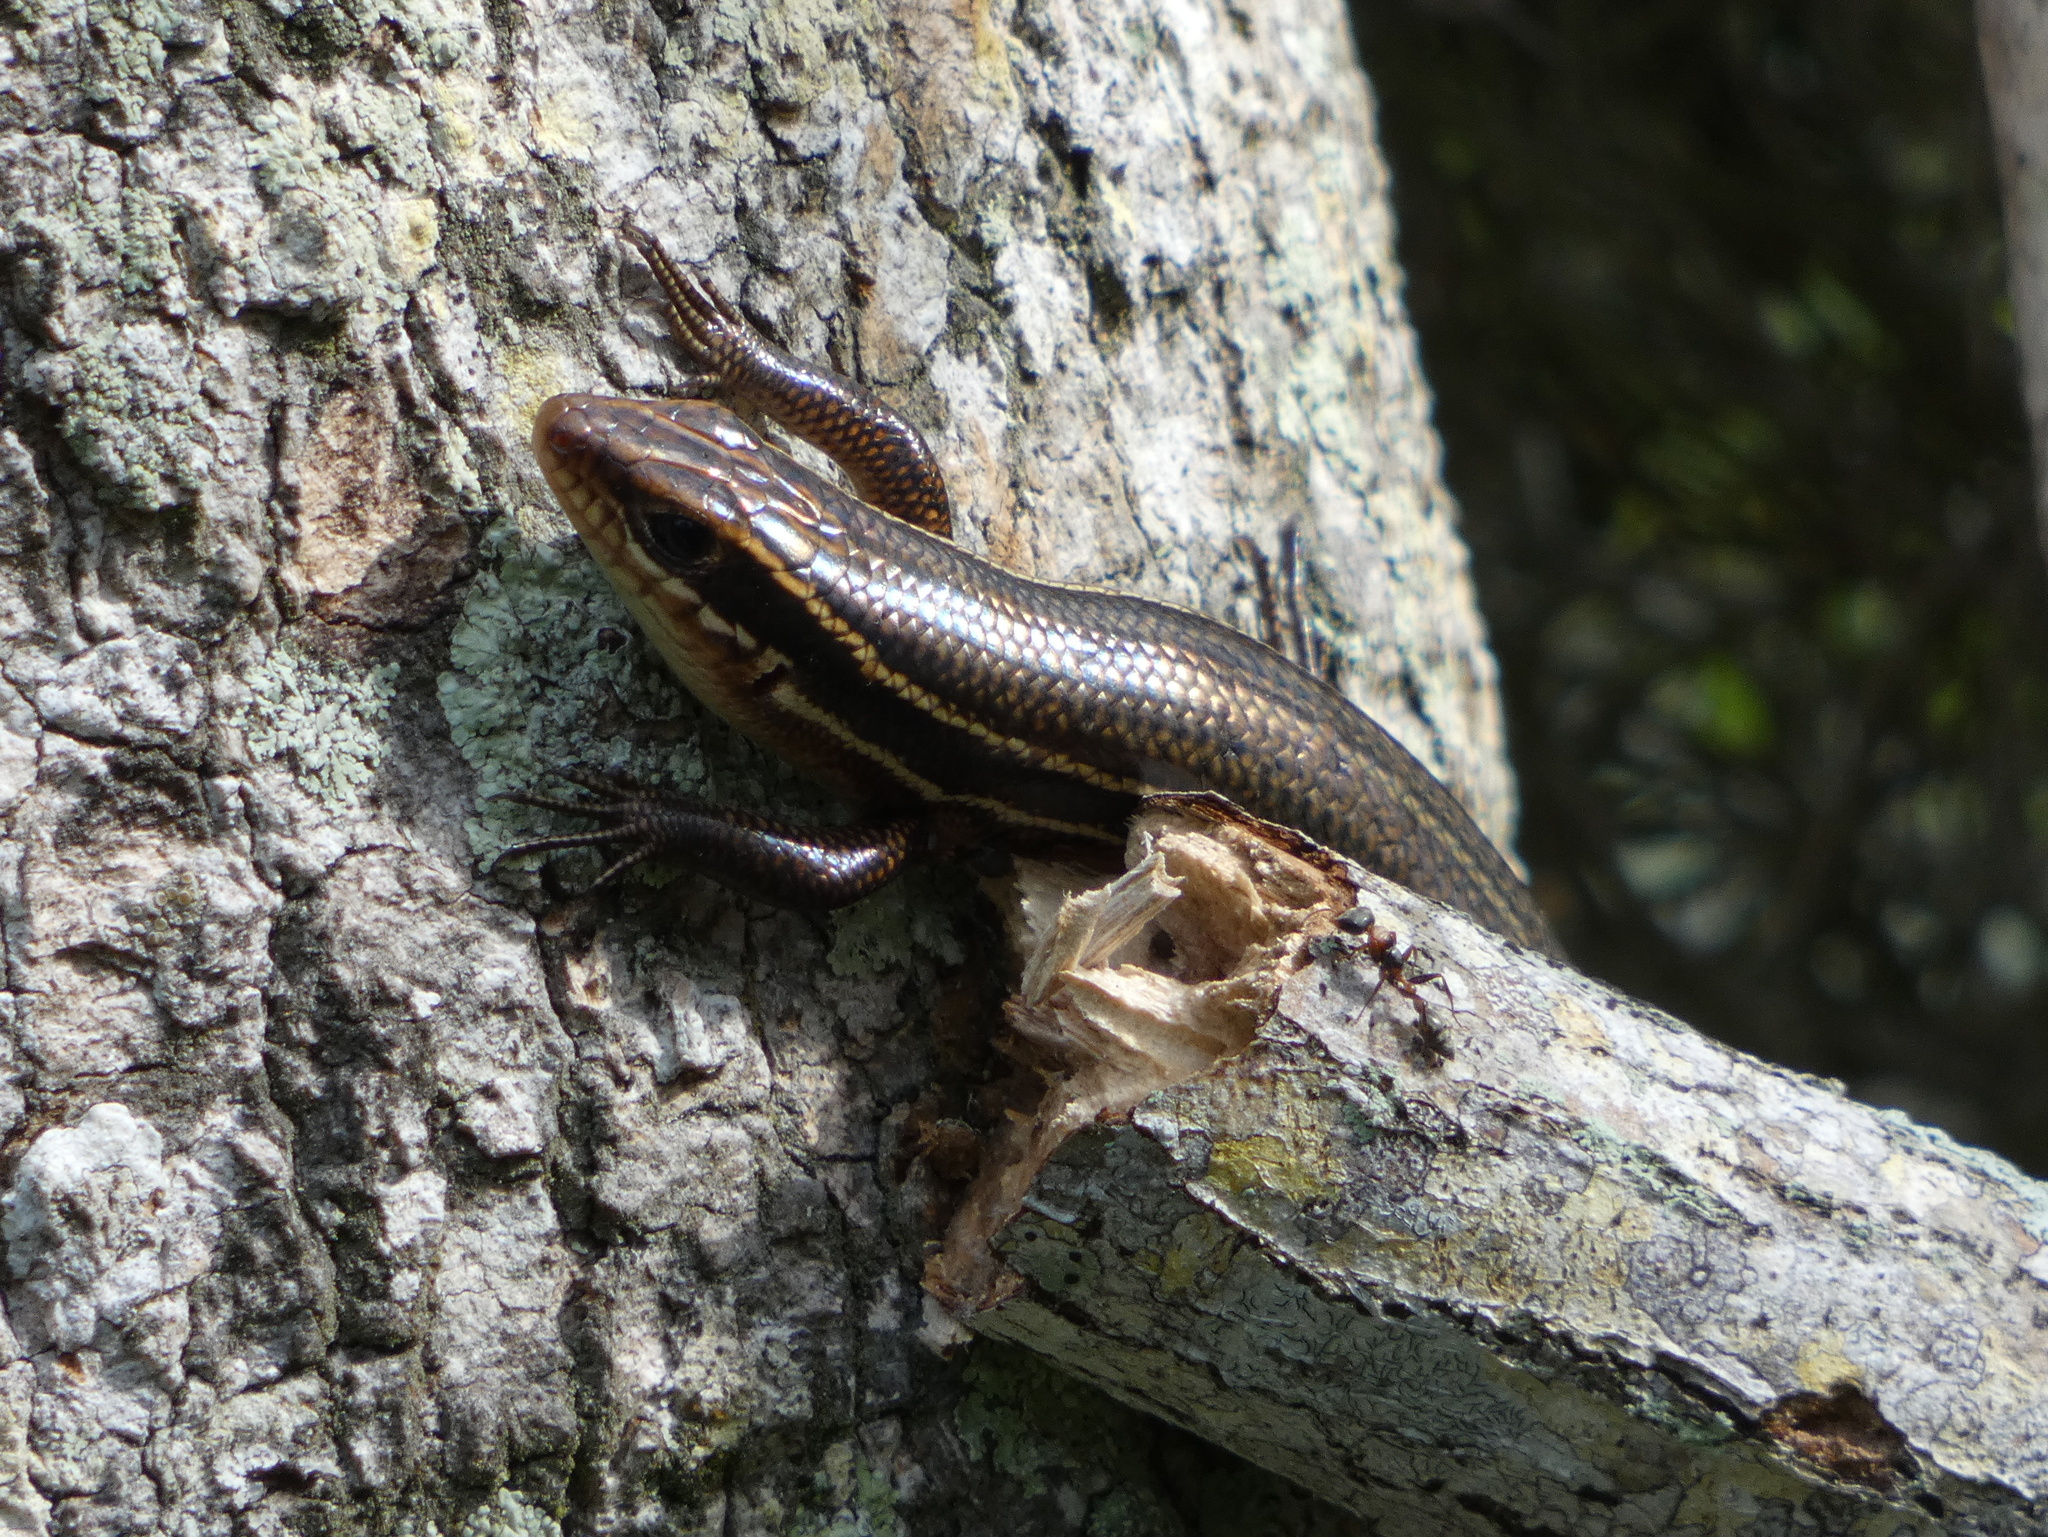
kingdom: Animalia
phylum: Chordata
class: Squamata
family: Scincidae
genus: Plestiodon
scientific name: Plestiodon inexpectatus
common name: Southeastern five-lined skink
